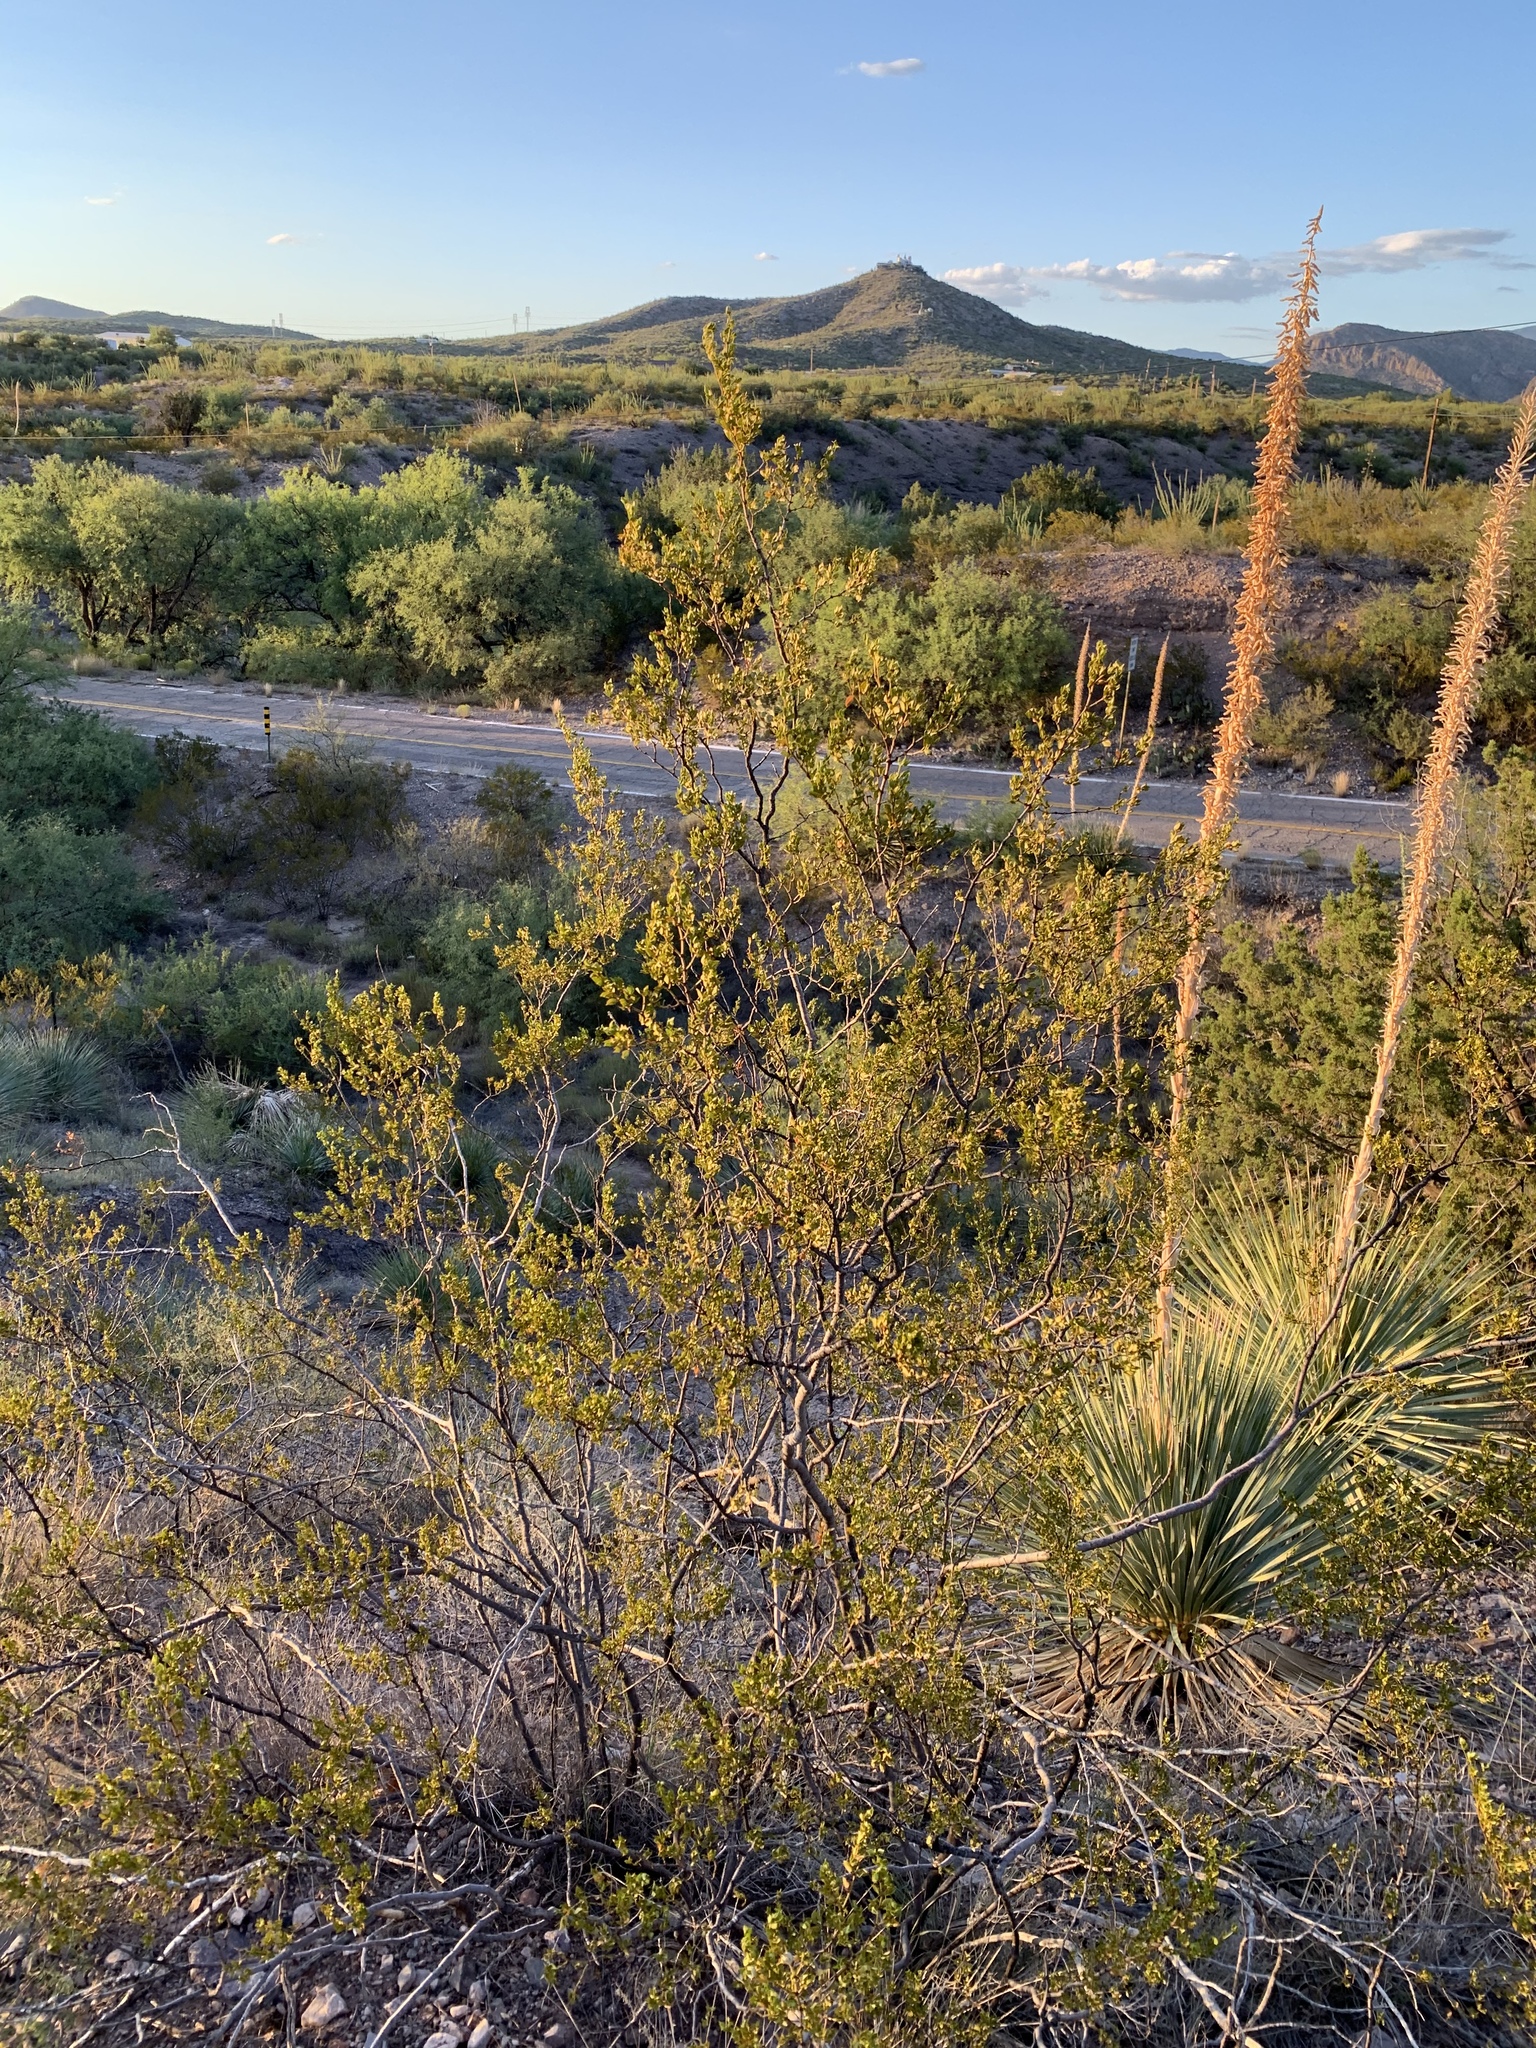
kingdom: Plantae
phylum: Tracheophyta
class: Magnoliopsida
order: Zygophyllales
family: Zygophyllaceae
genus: Larrea
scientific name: Larrea tridentata
